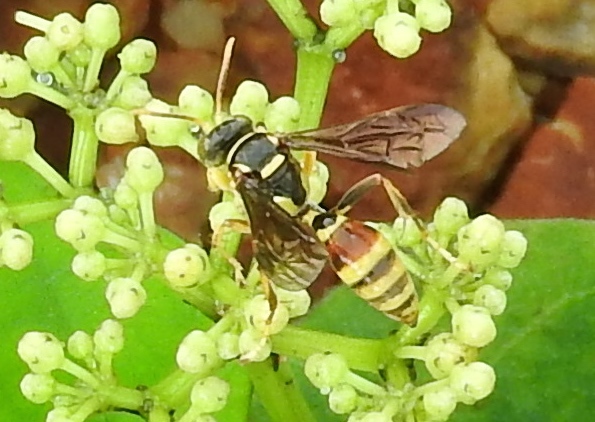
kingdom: Animalia
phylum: Arthropoda
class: Insecta
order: Hymenoptera
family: Crabronidae
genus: Saygorytes
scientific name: Saygorytes
